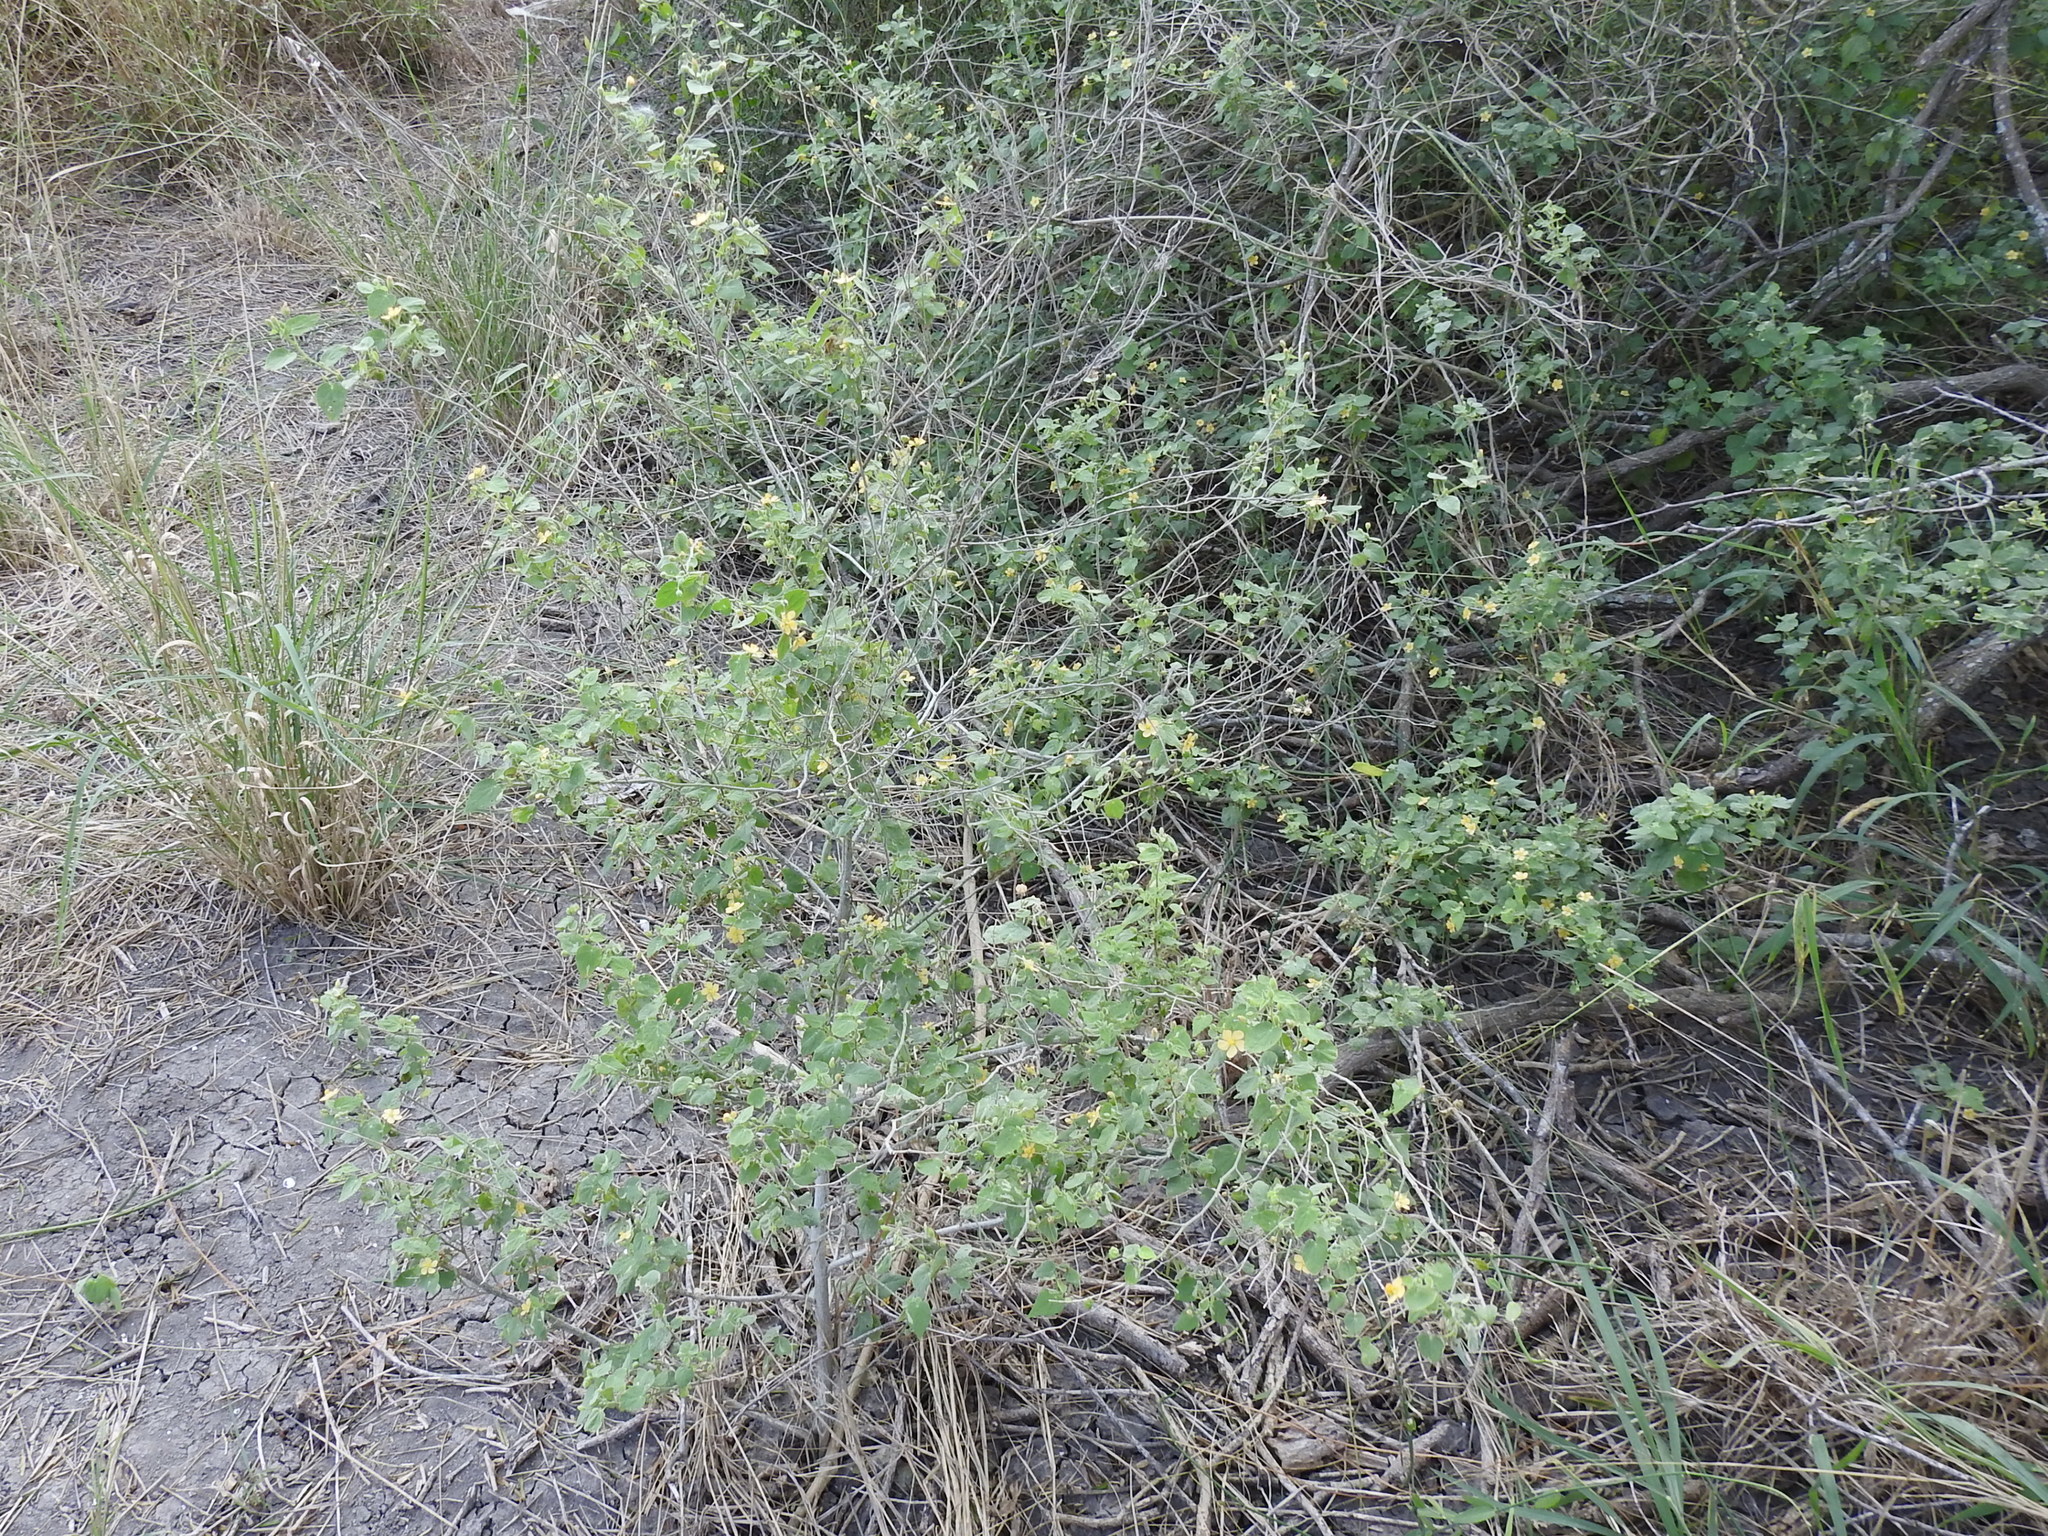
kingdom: Plantae
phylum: Tracheophyta
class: Magnoliopsida
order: Malvales
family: Malvaceae
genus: Abutilon
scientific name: Abutilon viscosum
